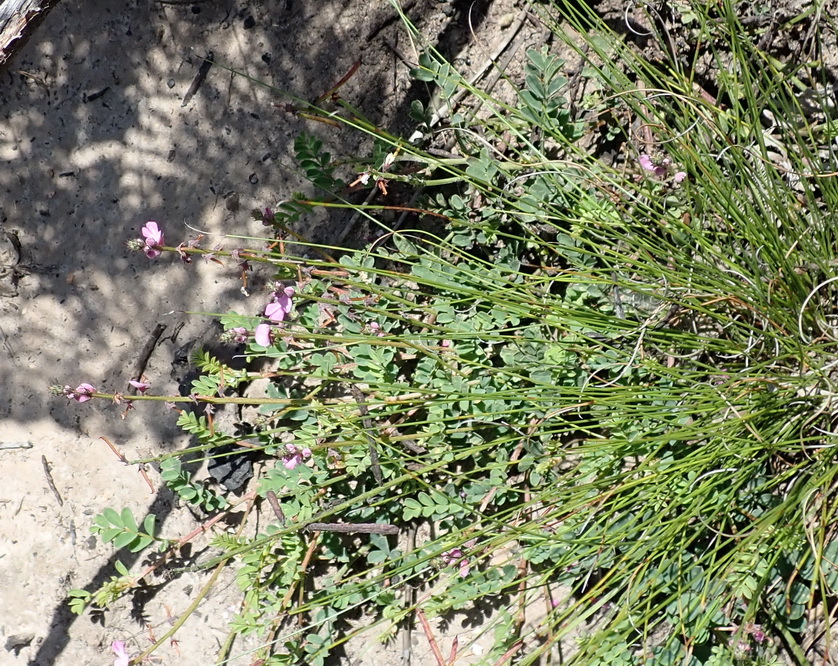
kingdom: Plantae
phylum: Tracheophyta
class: Magnoliopsida
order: Fabales
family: Fabaceae
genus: Indigofera
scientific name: Indigofera declinata
